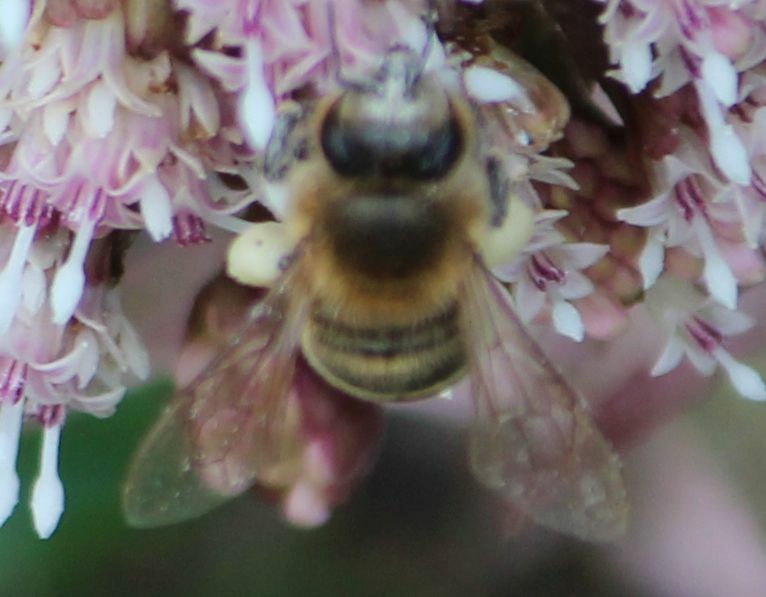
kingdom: Animalia
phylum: Arthropoda
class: Insecta
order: Hymenoptera
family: Apidae
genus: Apis
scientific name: Apis mellifera
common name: Honey bee
